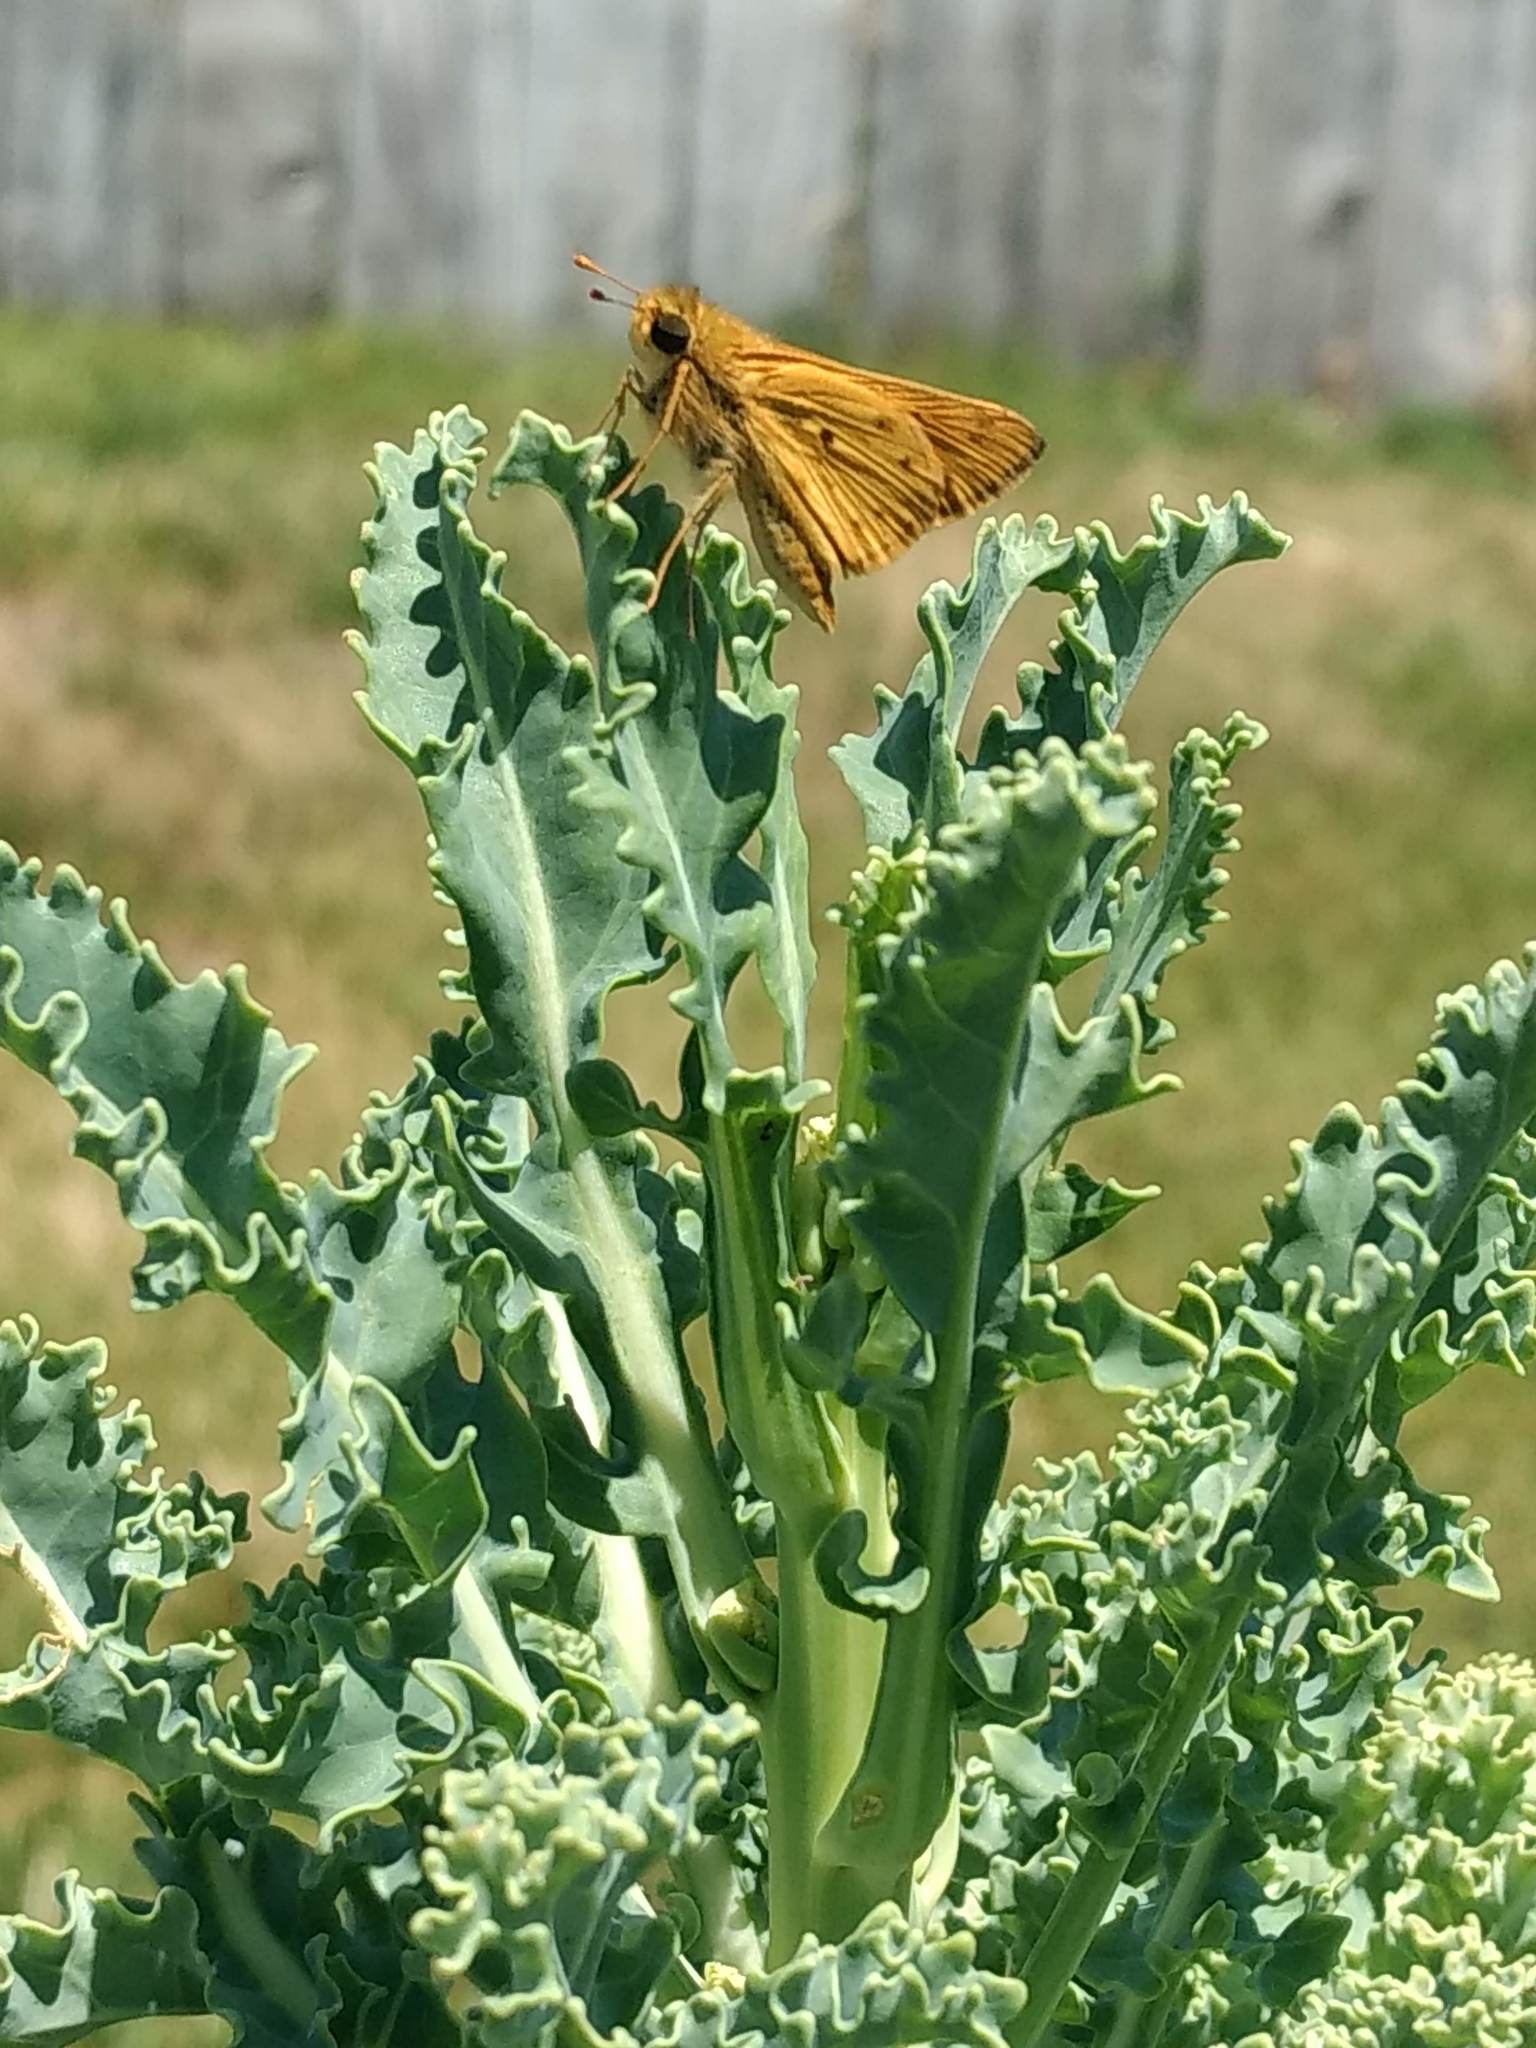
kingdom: Animalia
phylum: Arthropoda
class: Insecta
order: Lepidoptera
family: Hesperiidae
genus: Hylephila
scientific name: Hylephila phyleus
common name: Fiery skipper
